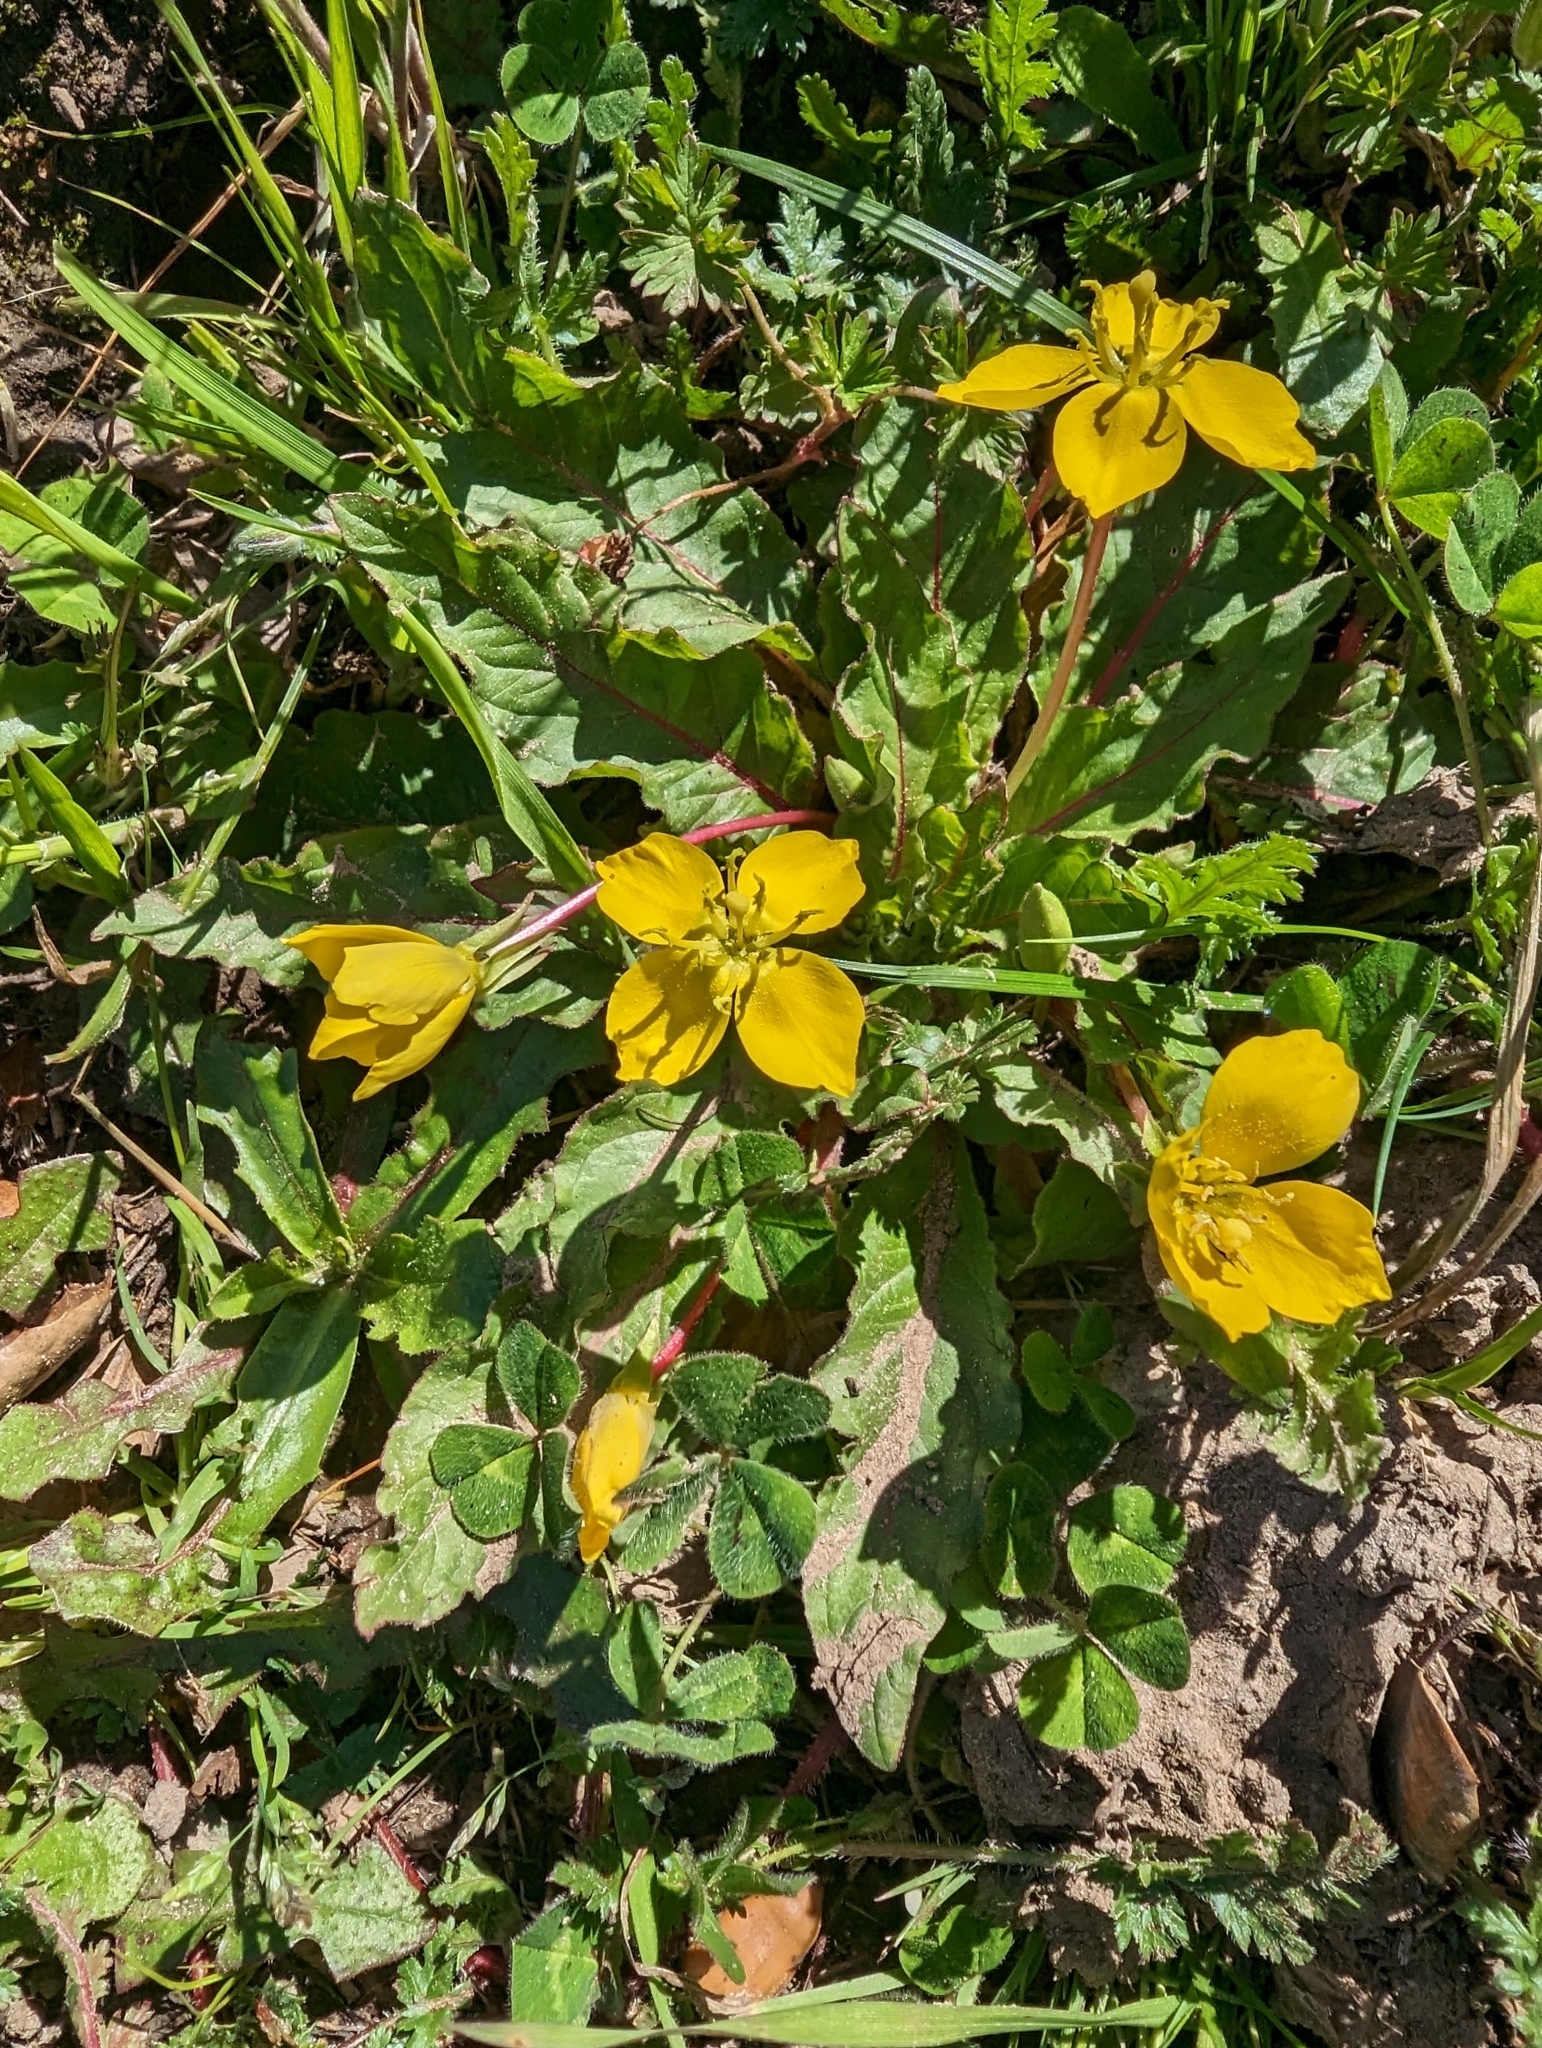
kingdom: Plantae
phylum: Tracheophyta
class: Magnoliopsida
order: Myrtales
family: Onagraceae
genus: Taraxia
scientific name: Taraxia ovata
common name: Goldeneggs
